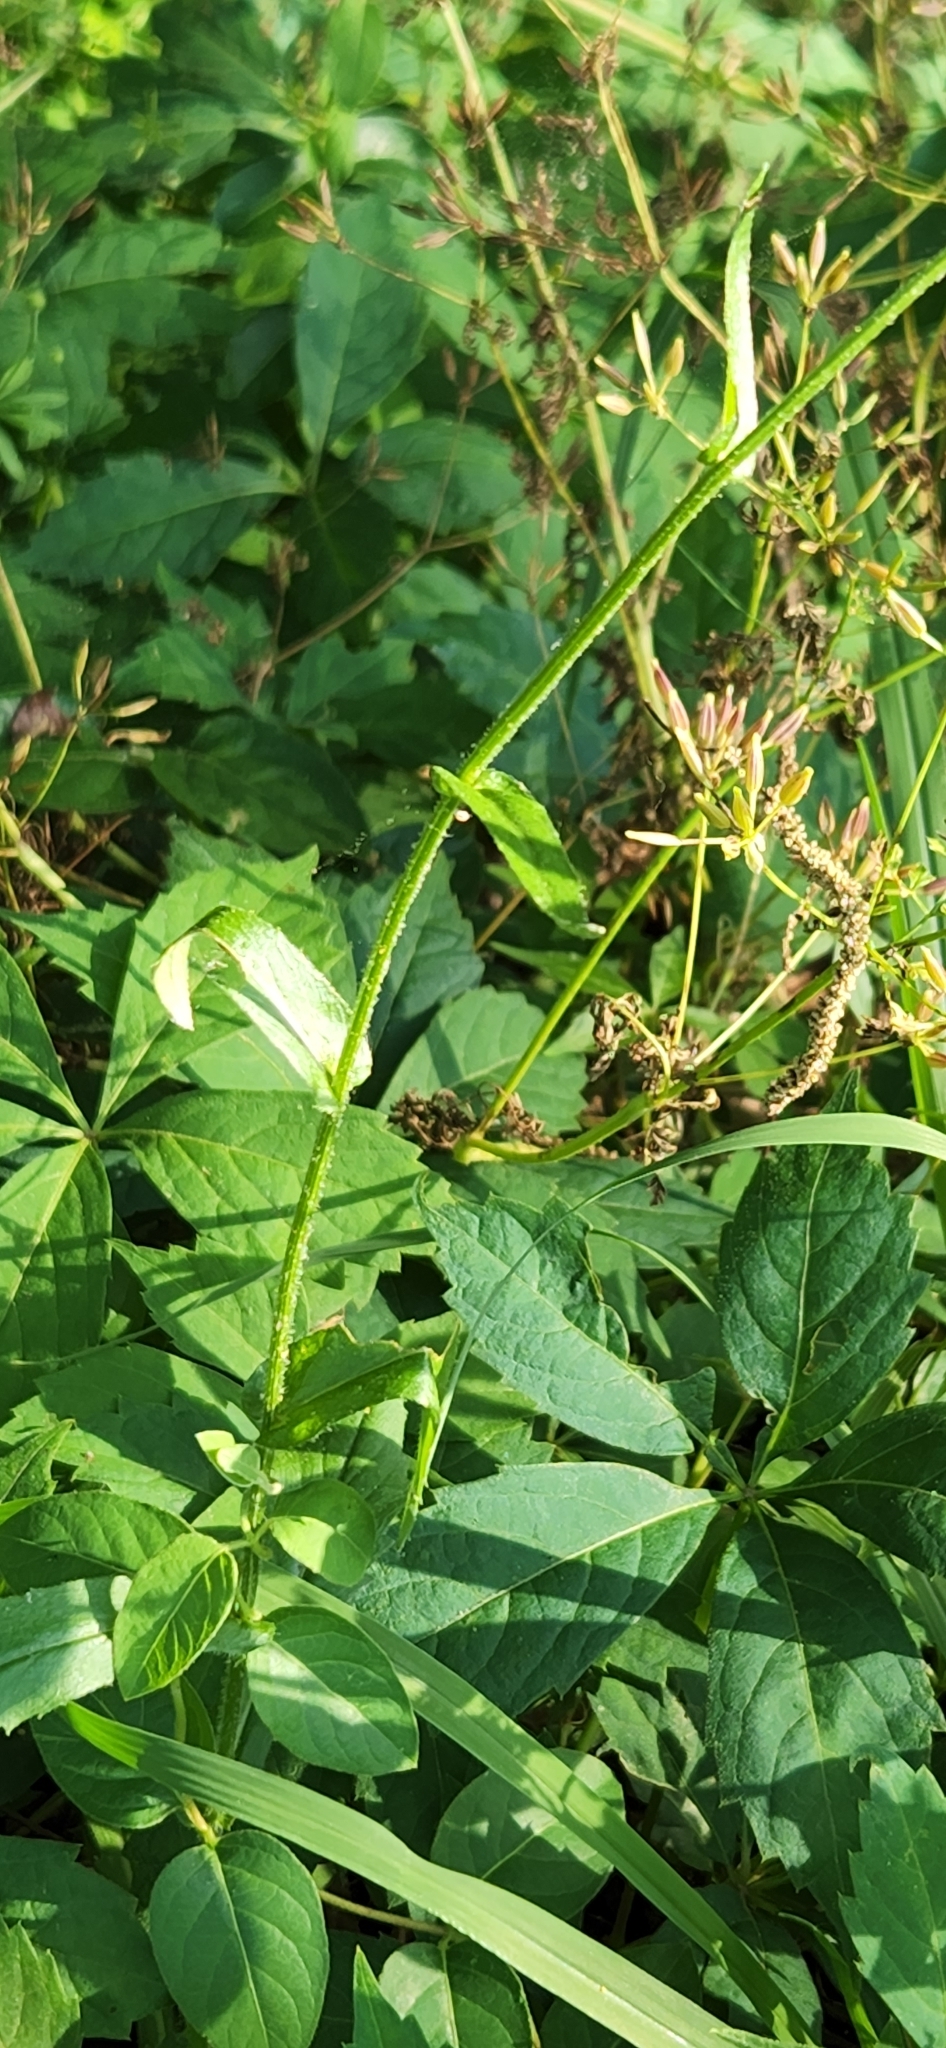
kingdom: Plantae
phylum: Tracheophyta
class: Magnoliopsida
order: Asterales
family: Asteraceae
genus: Erigeron
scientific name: Erigeron philadelphicus
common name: Robin's-plantain
